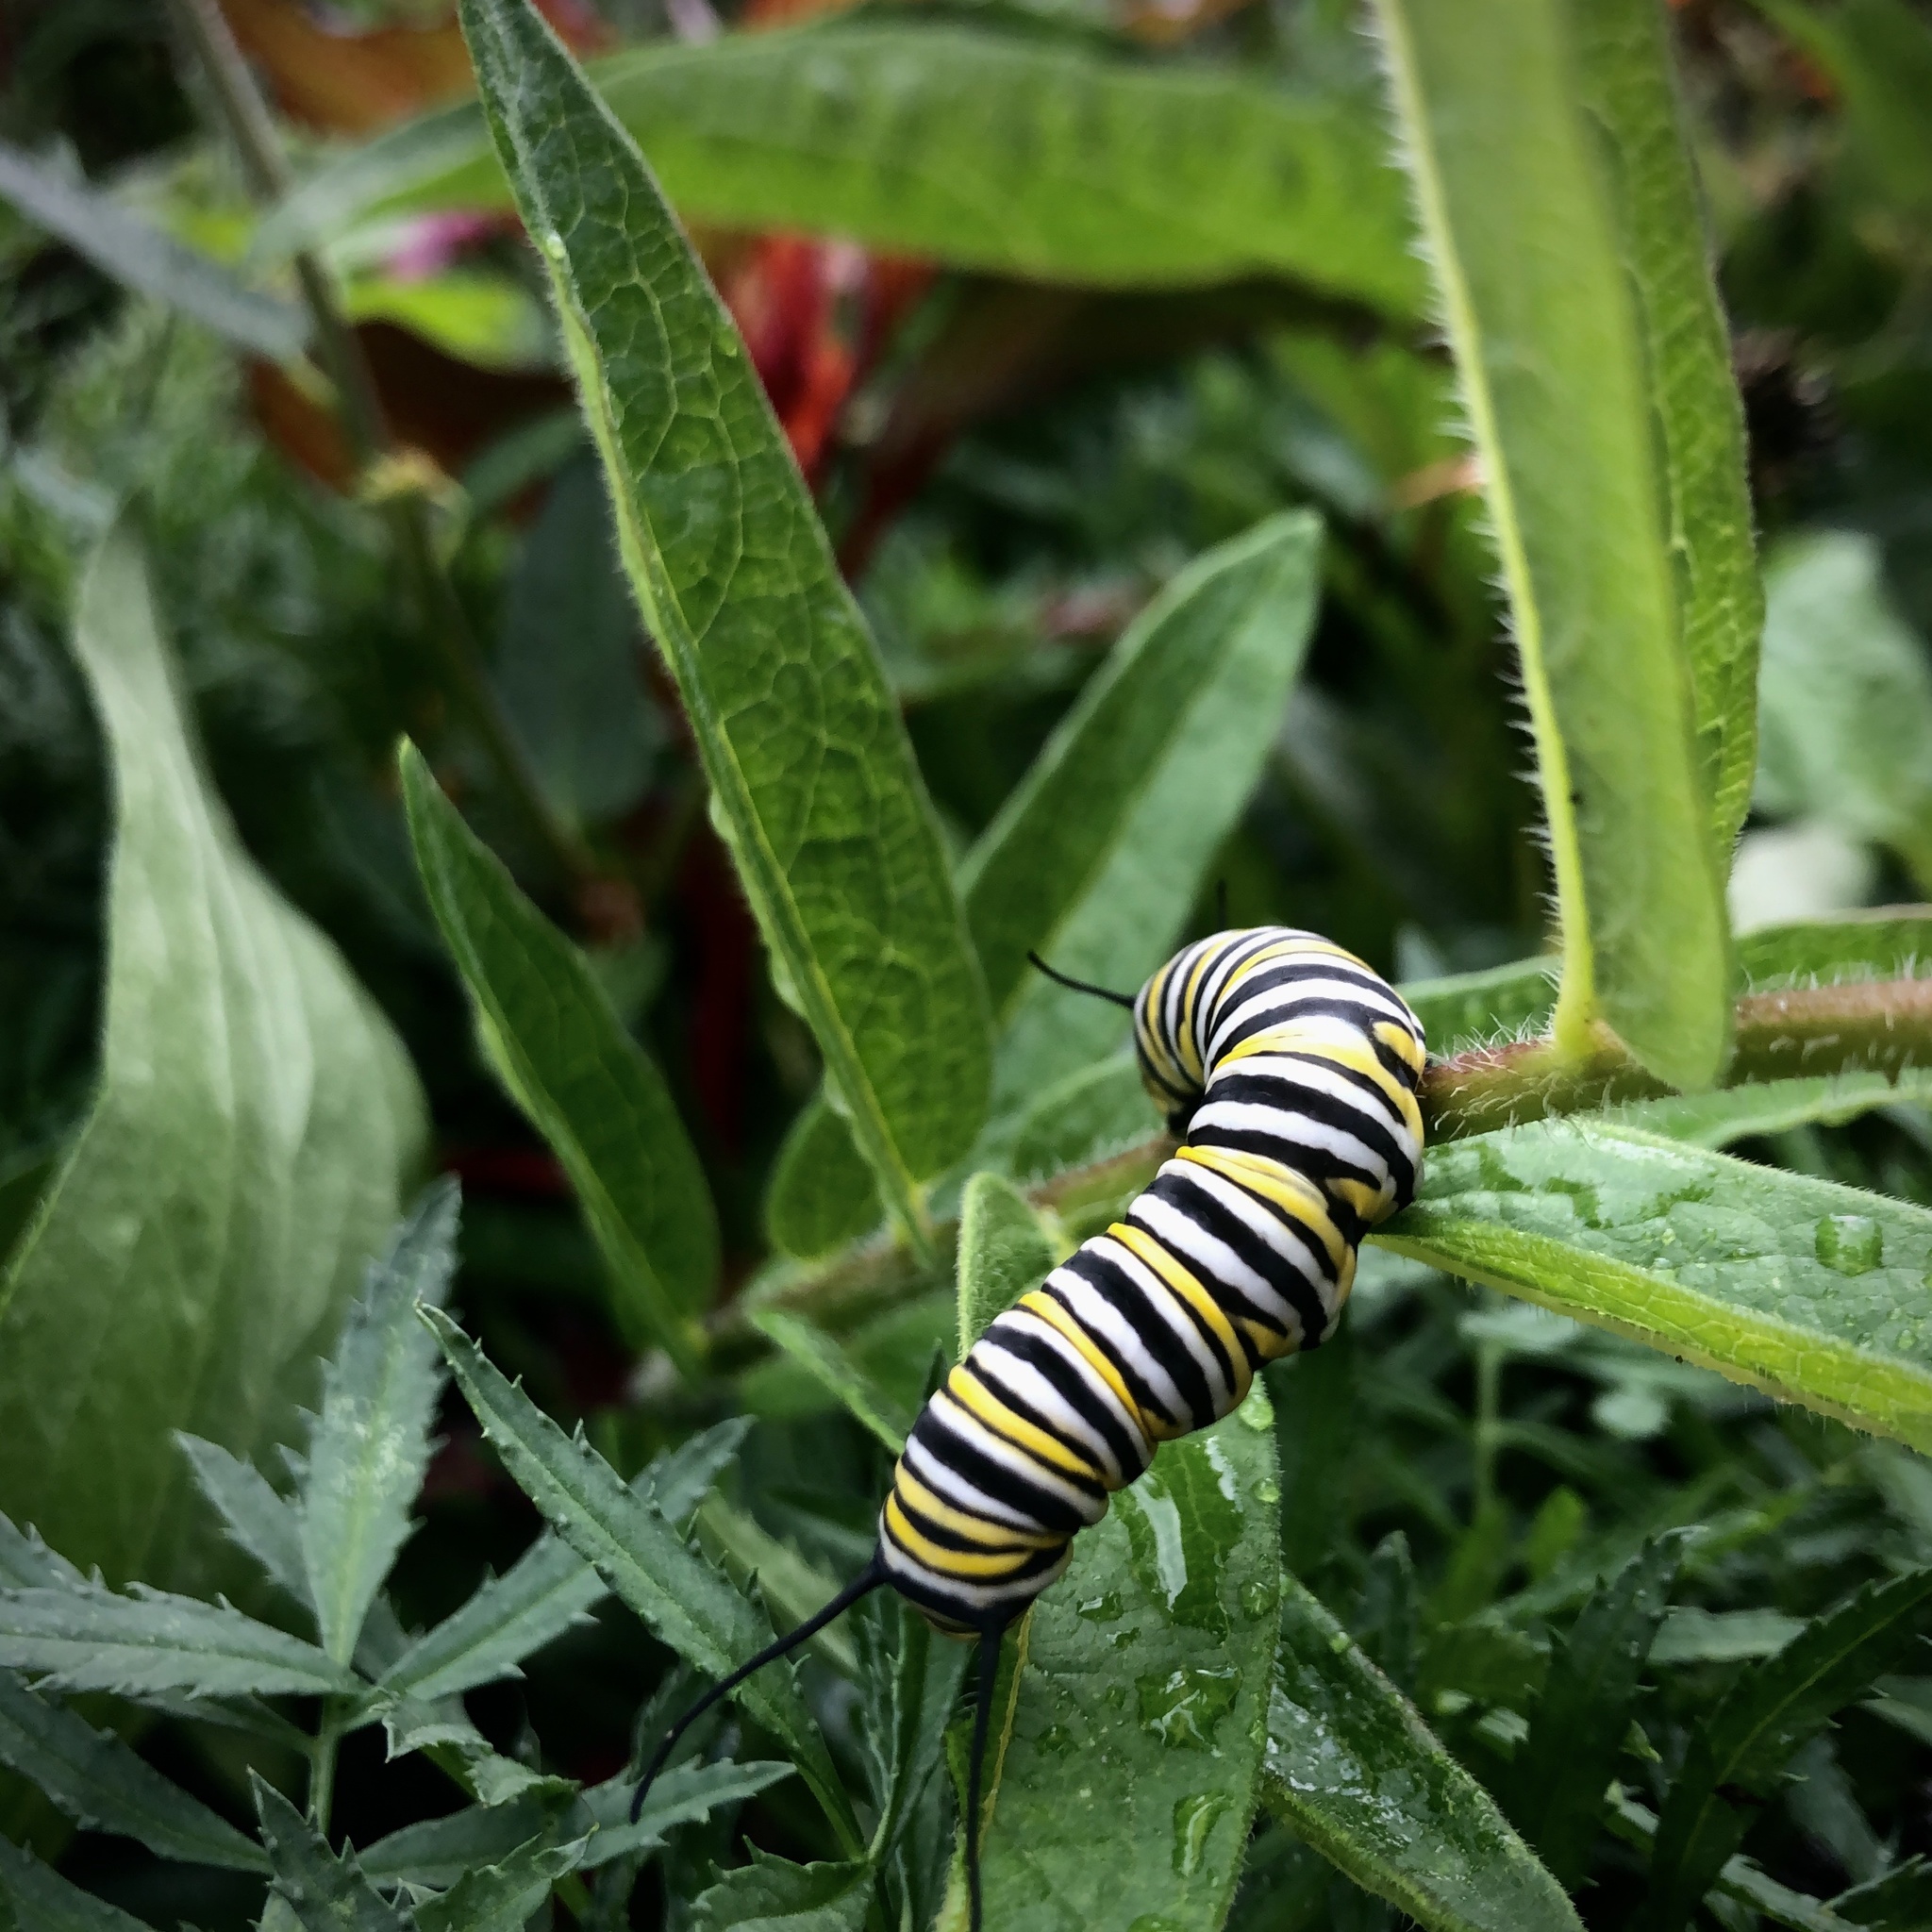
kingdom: Animalia
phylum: Arthropoda
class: Insecta
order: Lepidoptera
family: Nymphalidae
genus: Danaus
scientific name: Danaus plexippus
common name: Monarch
